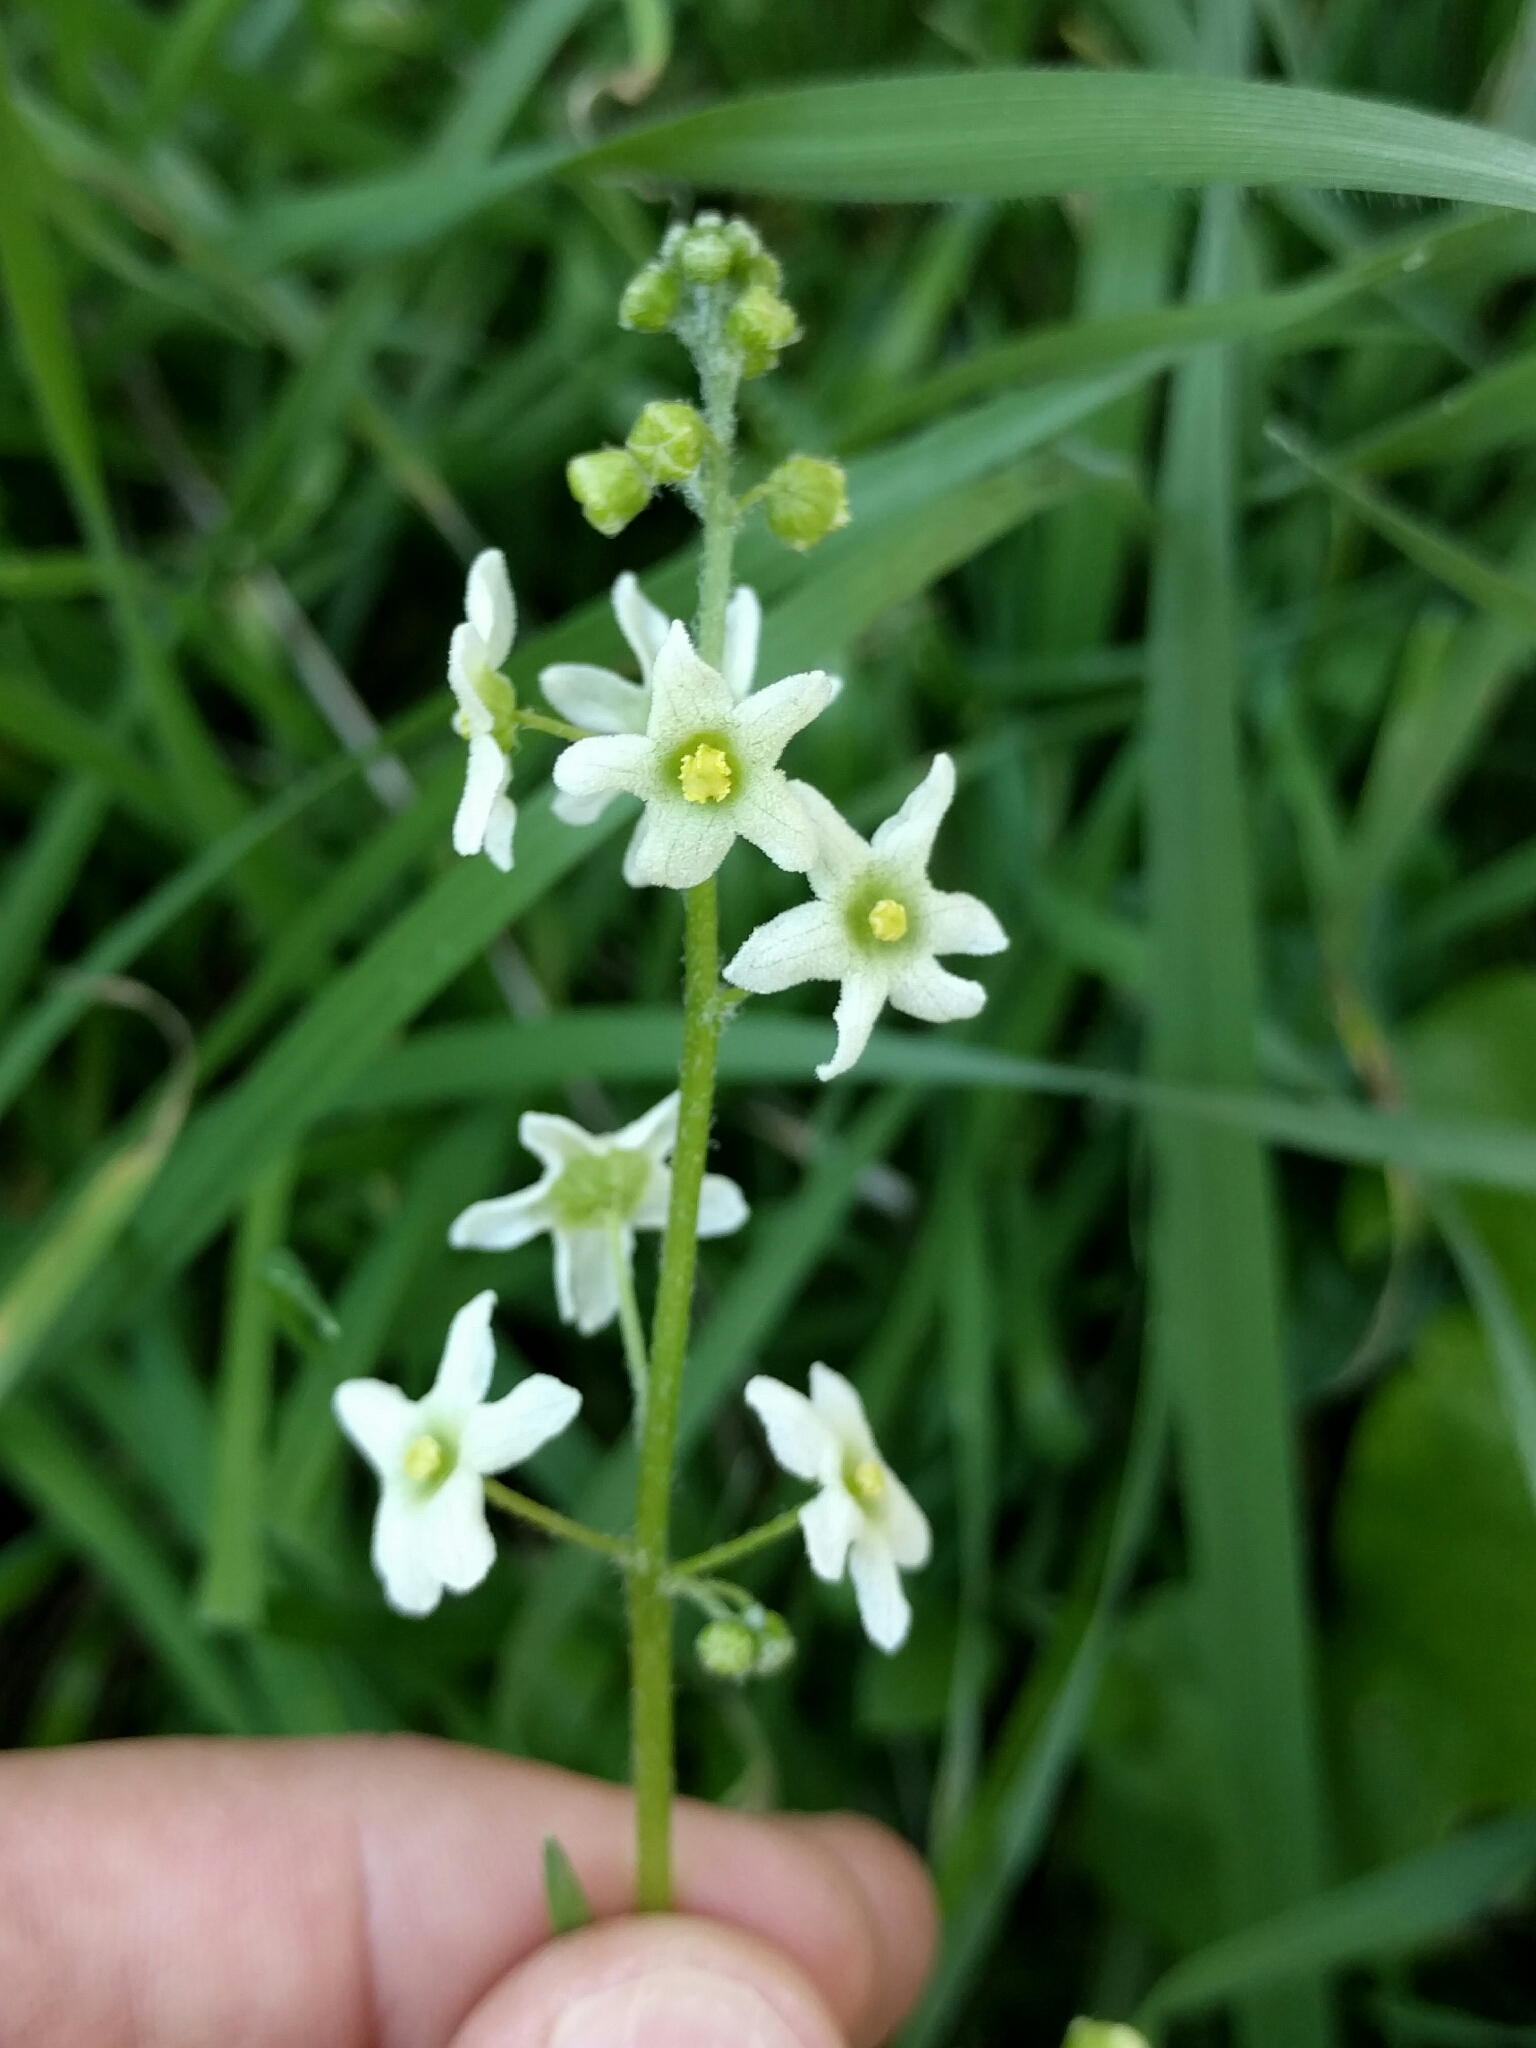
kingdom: Plantae
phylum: Tracheophyta
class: Magnoliopsida
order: Cucurbitales
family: Cucurbitaceae
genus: Marah
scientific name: Marah fabacea
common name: California manroot
